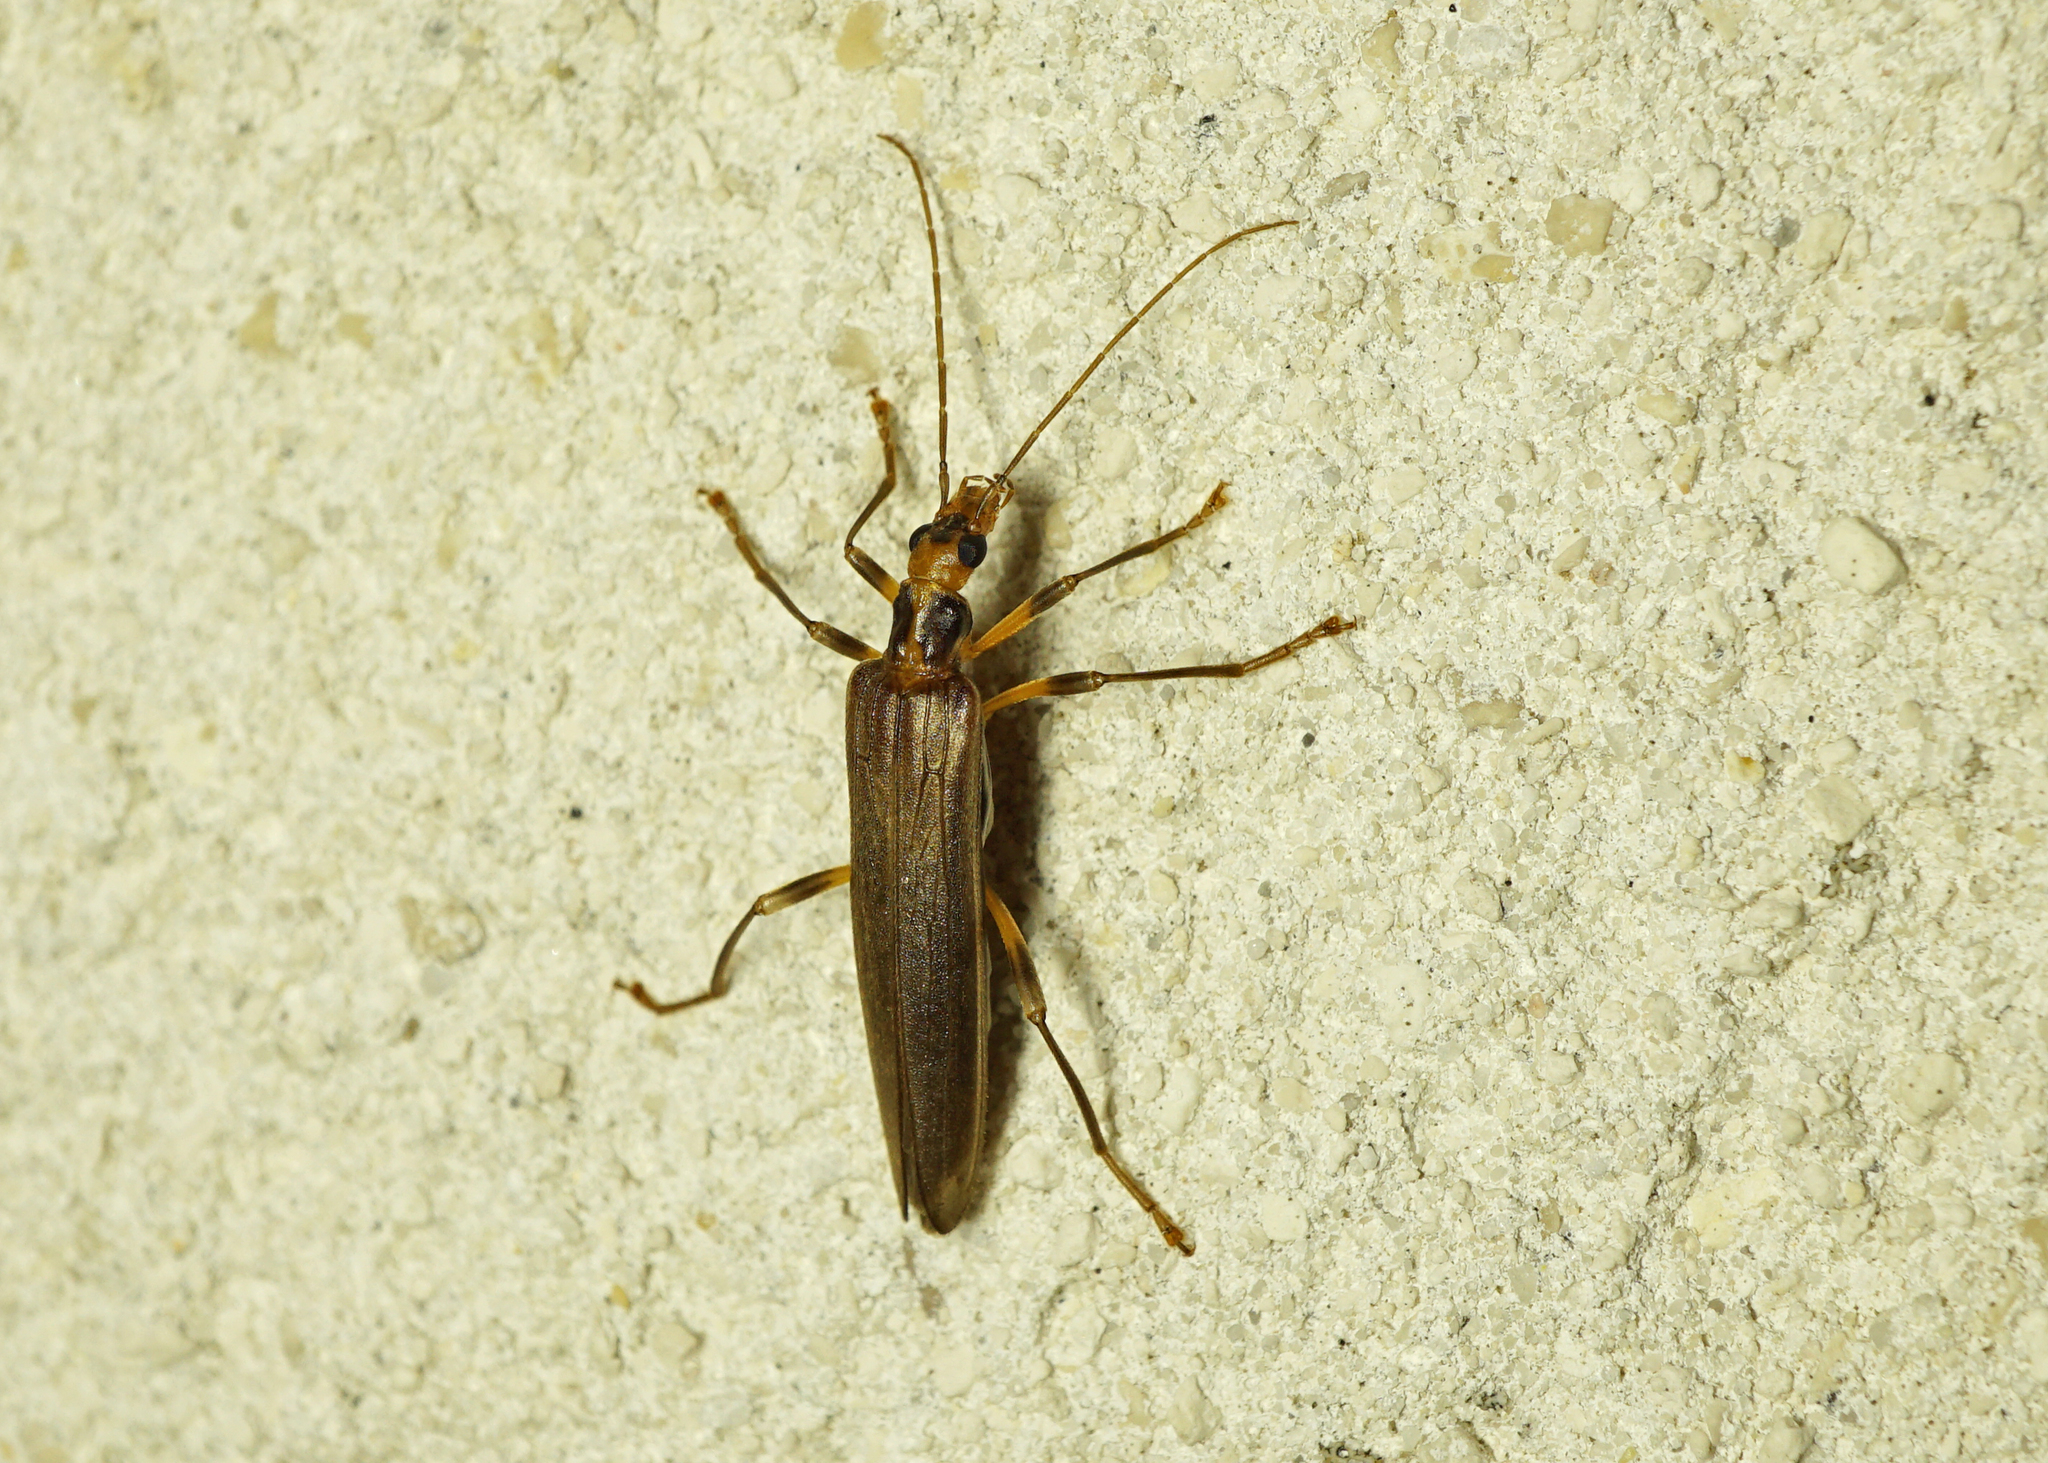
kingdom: Animalia
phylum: Arthropoda
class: Insecta
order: Coleoptera
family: Oedemeridae
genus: Oedemera
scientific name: Oedemera femoralis
